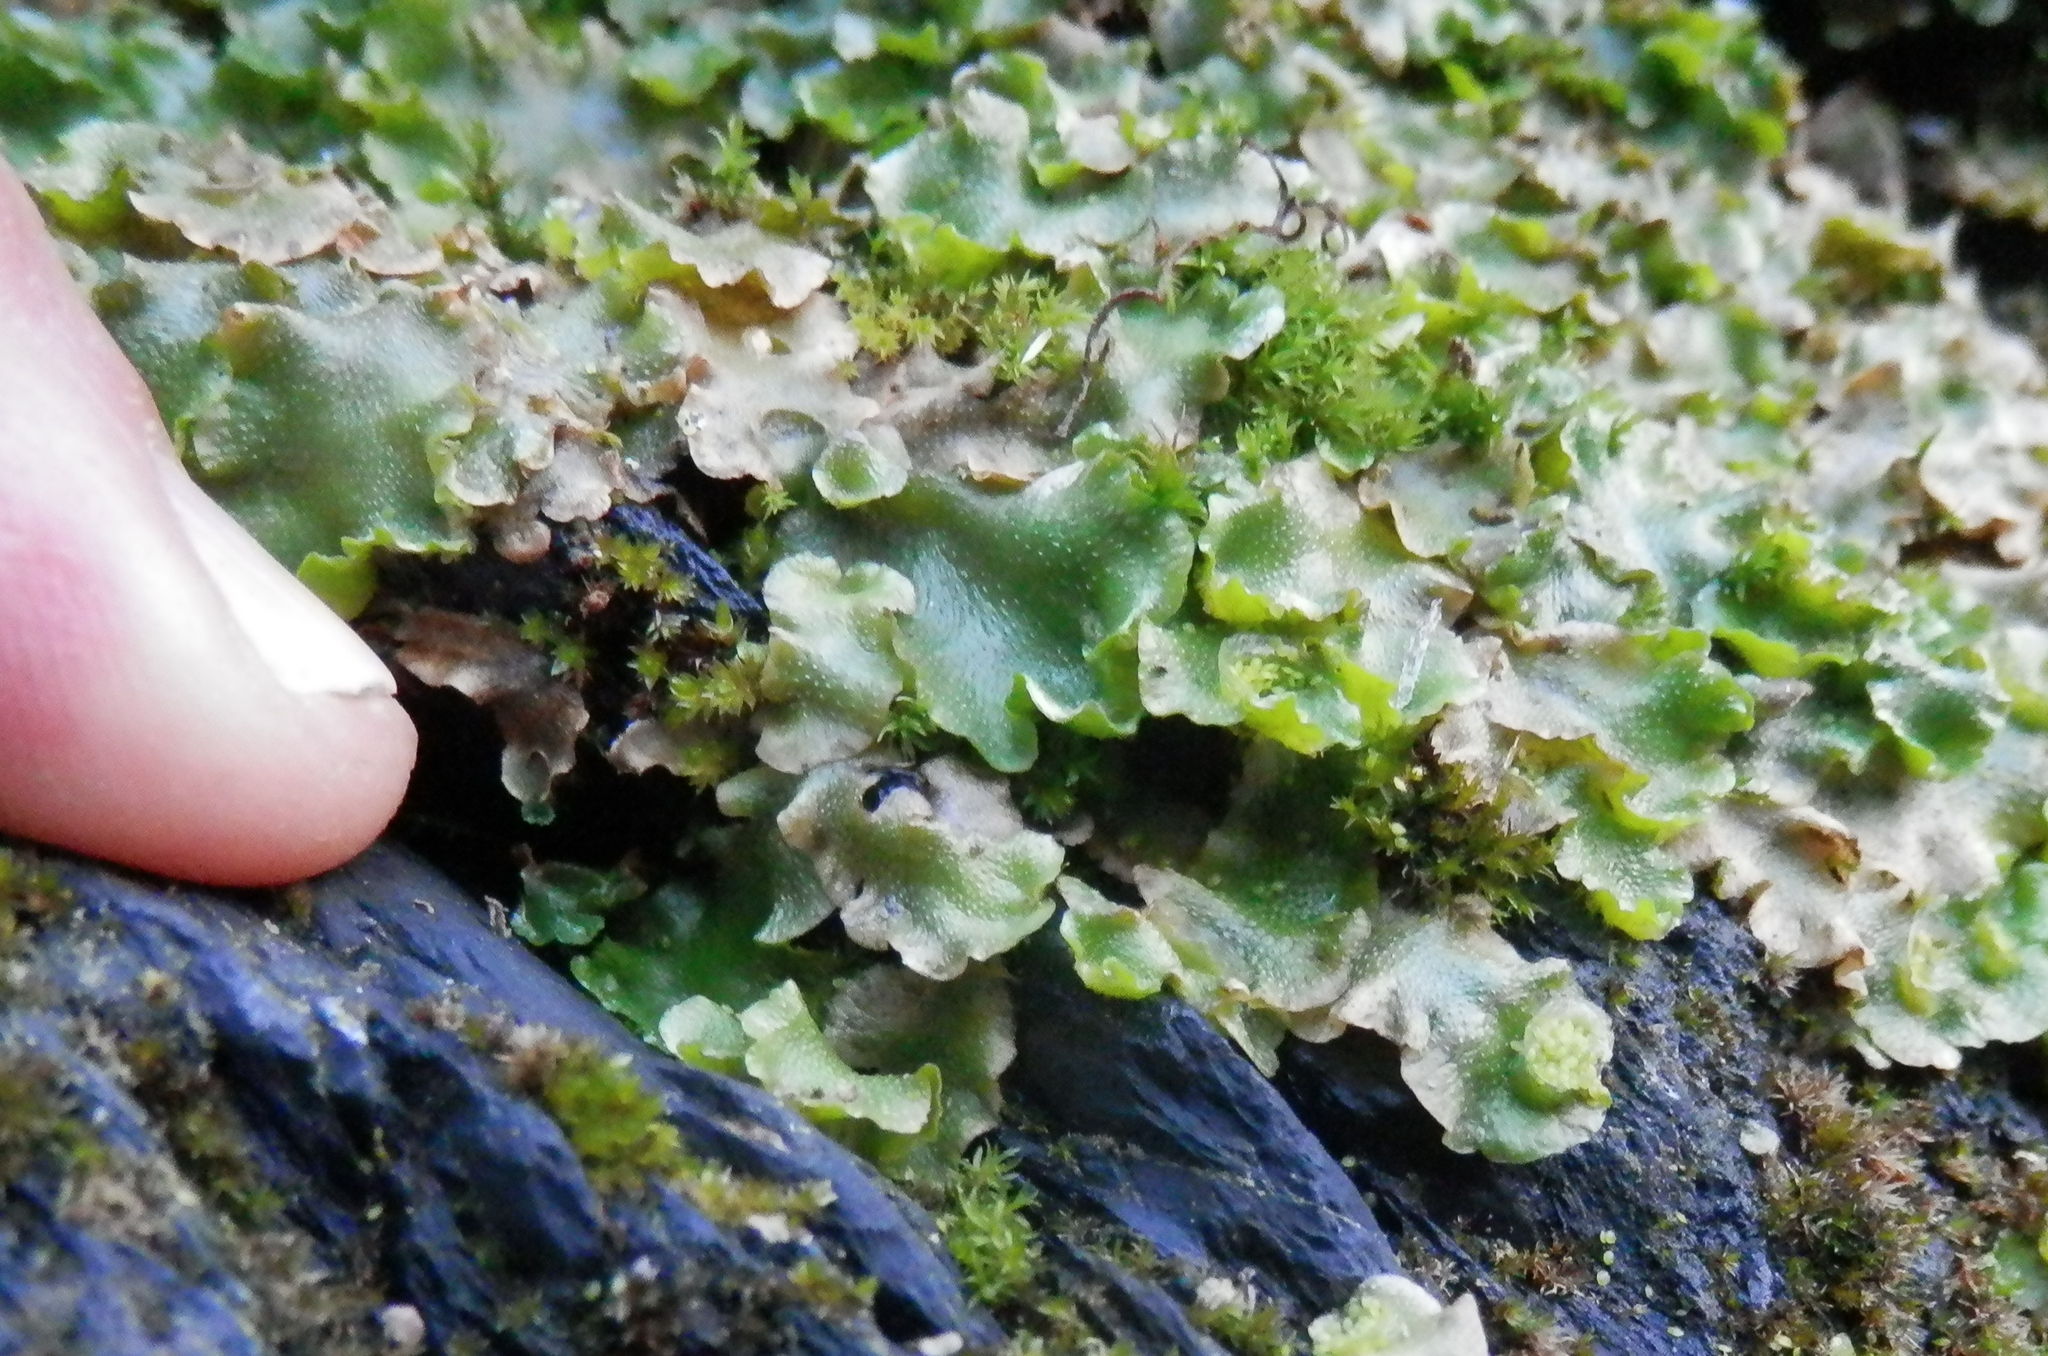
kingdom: Plantae
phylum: Marchantiophyta
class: Marchantiopsida
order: Lunulariales
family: Lunulariaceae
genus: Lunularia
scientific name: Lunularia cruciata
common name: Crescent-cup liverwort
